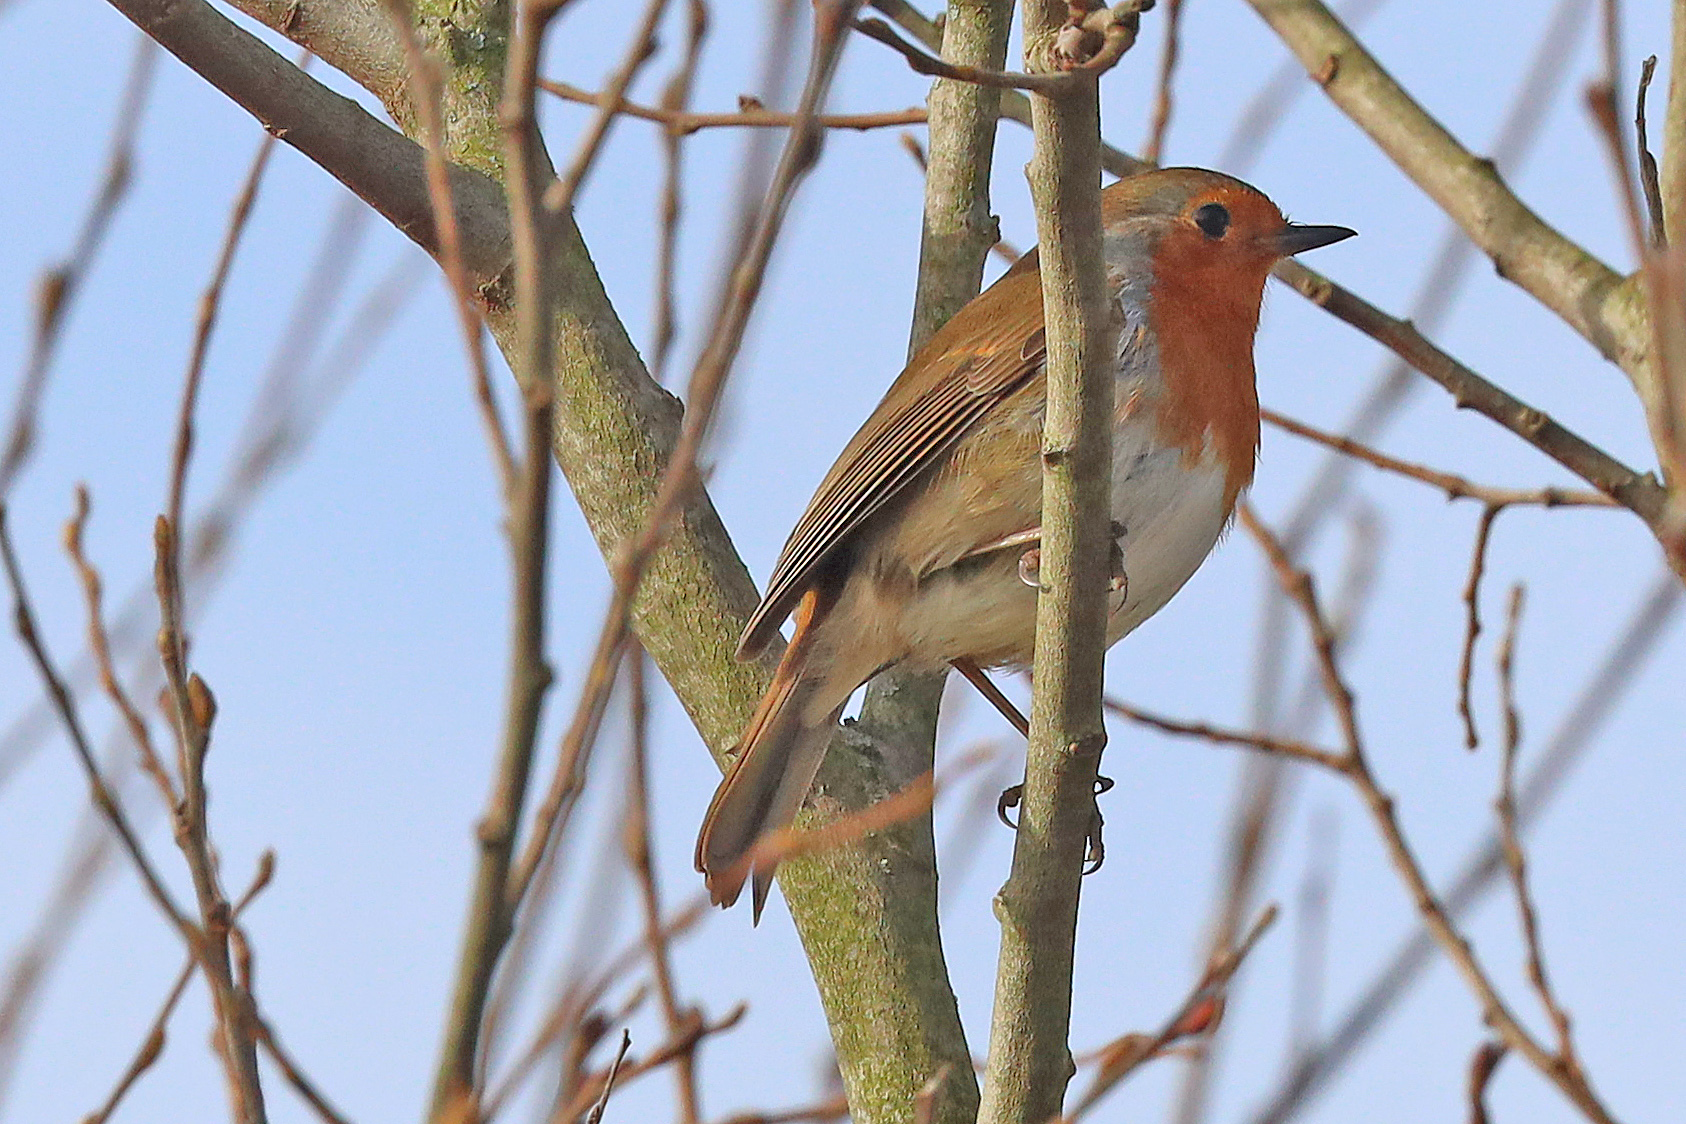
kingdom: Animalia
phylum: Chordata
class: Aves
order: Passeriformes
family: Muscicapidae
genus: Erithacus
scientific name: Erithacus rubecula
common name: European robin
